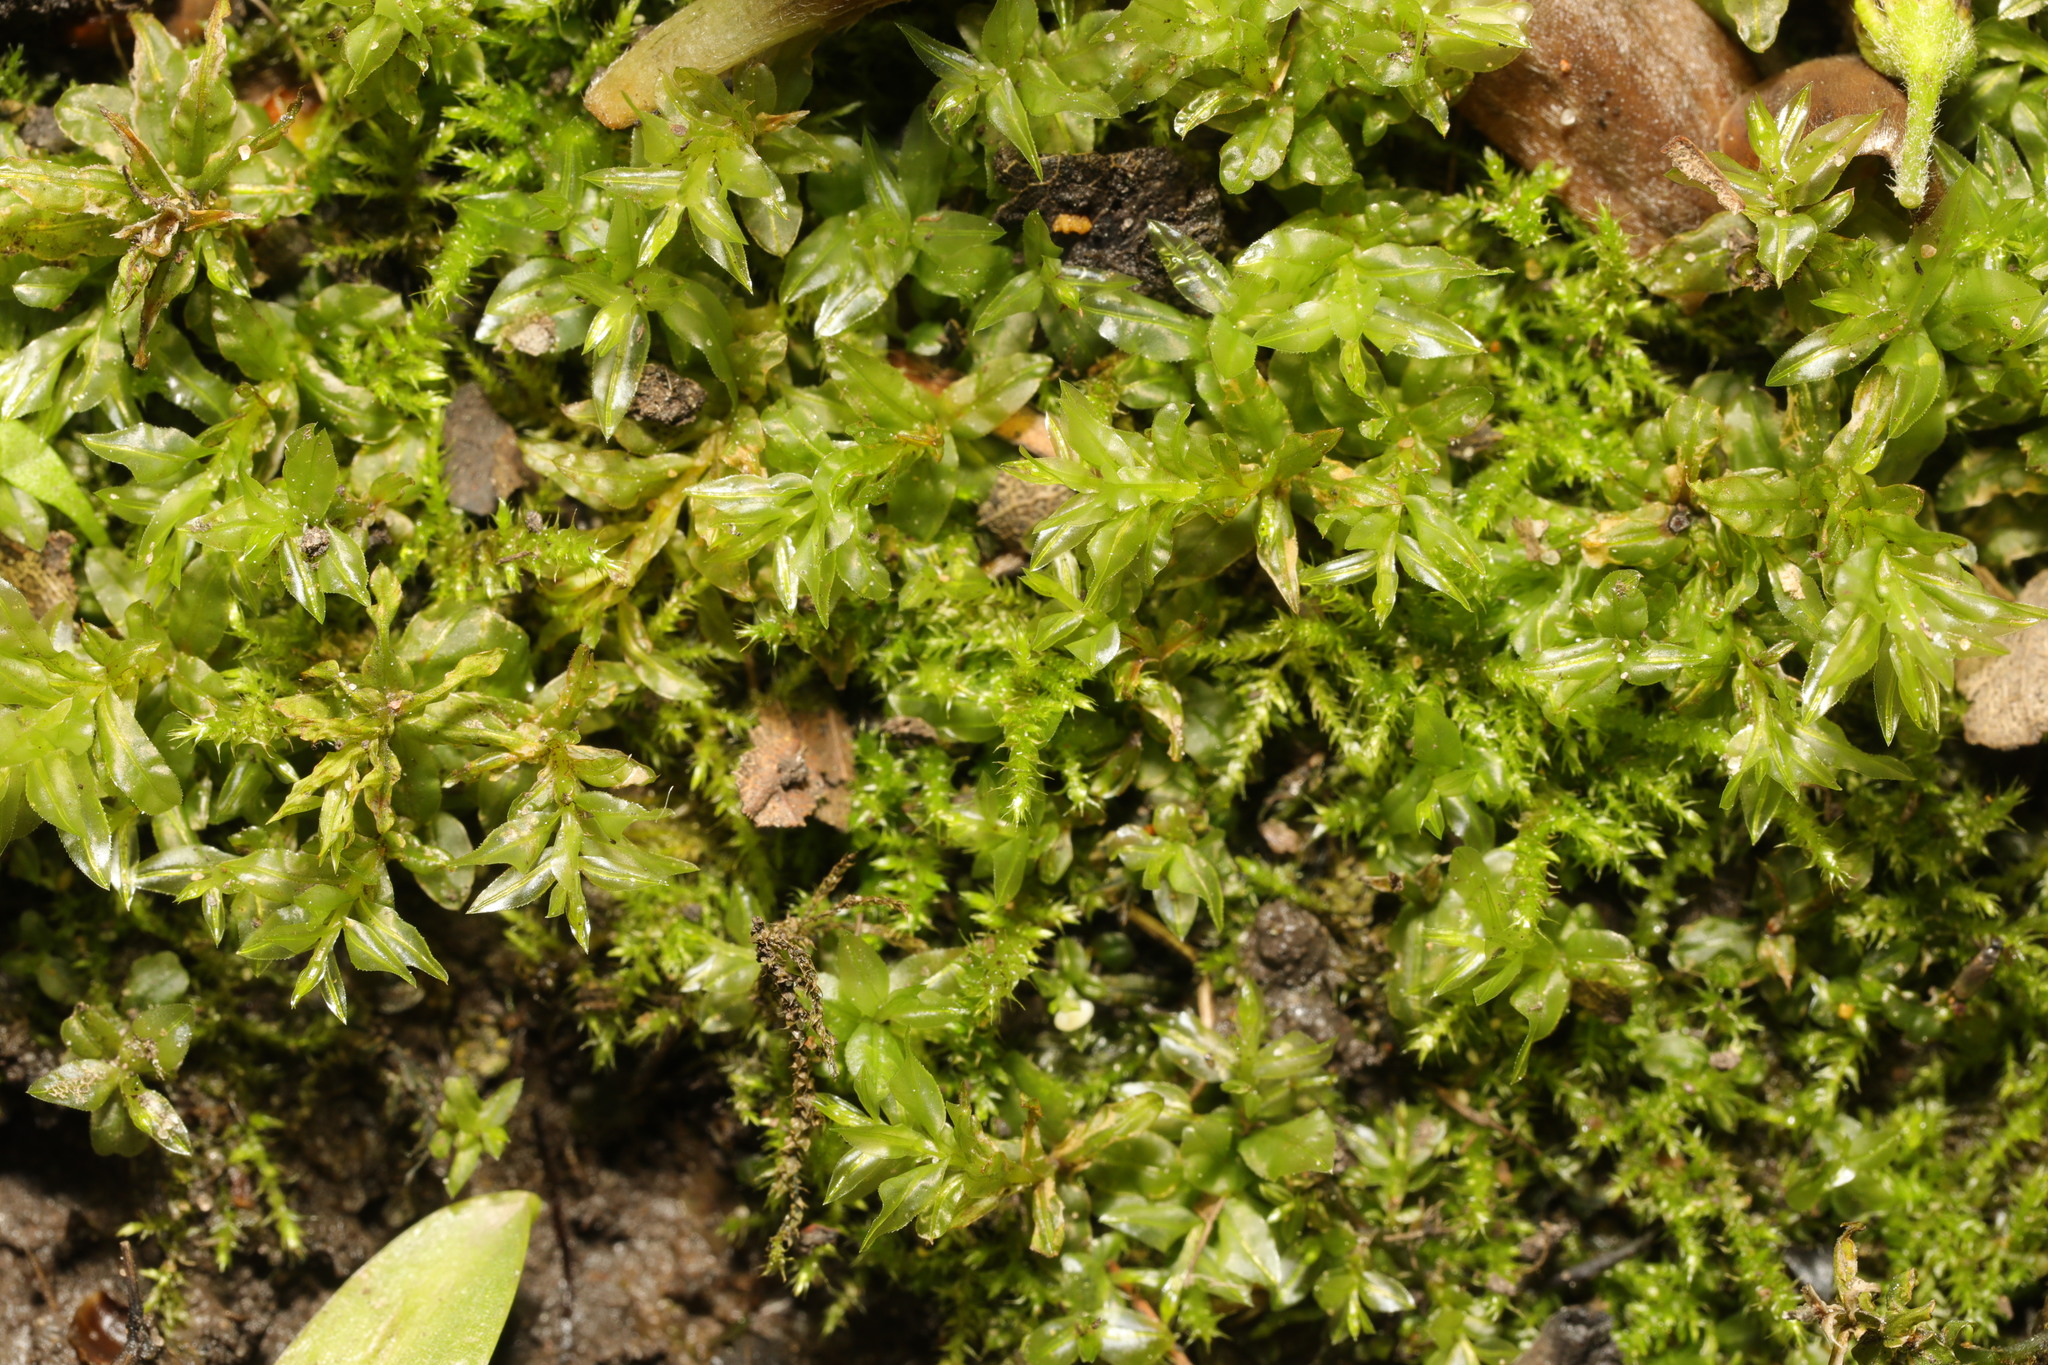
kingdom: Plantae
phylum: Bryophyta
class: Bryopsida
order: Bryales
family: Mniaceae
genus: Plagiomnium
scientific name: Plagiomnium undulatum
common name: Hart's-tongue thyme-moss
